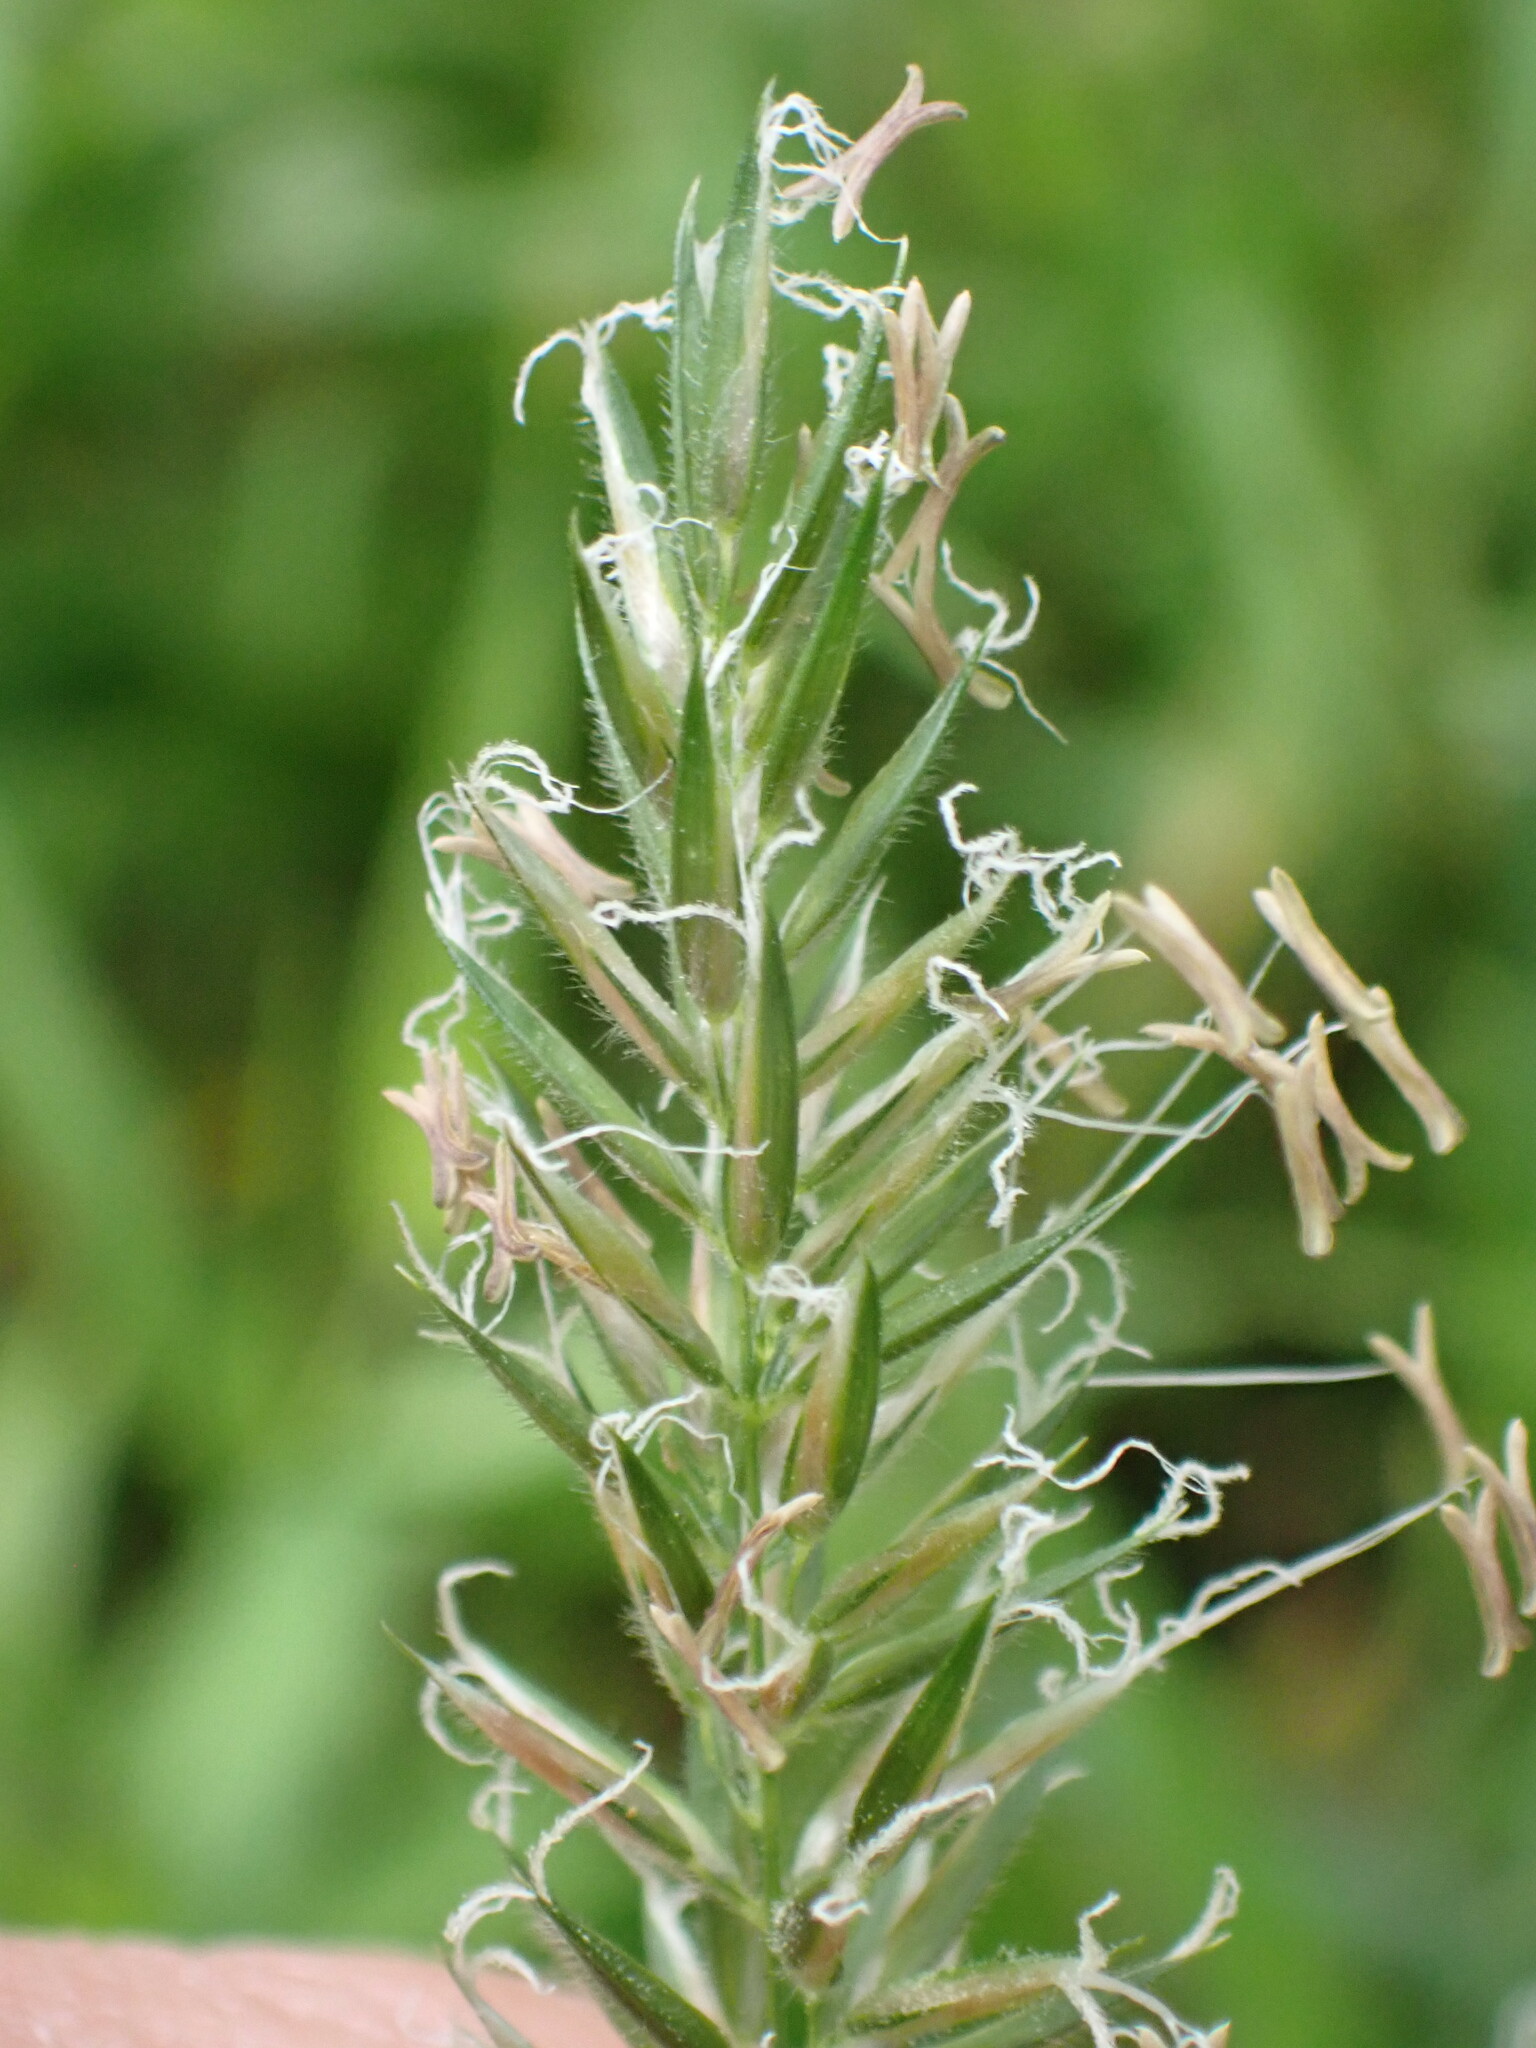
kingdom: Plantae
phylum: Tracheophyta
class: Liliopsida
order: Poales
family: Poaceae
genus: Anthoxanthum
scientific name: Anthoxanthum odoratum
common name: Sweet vernalgrass
